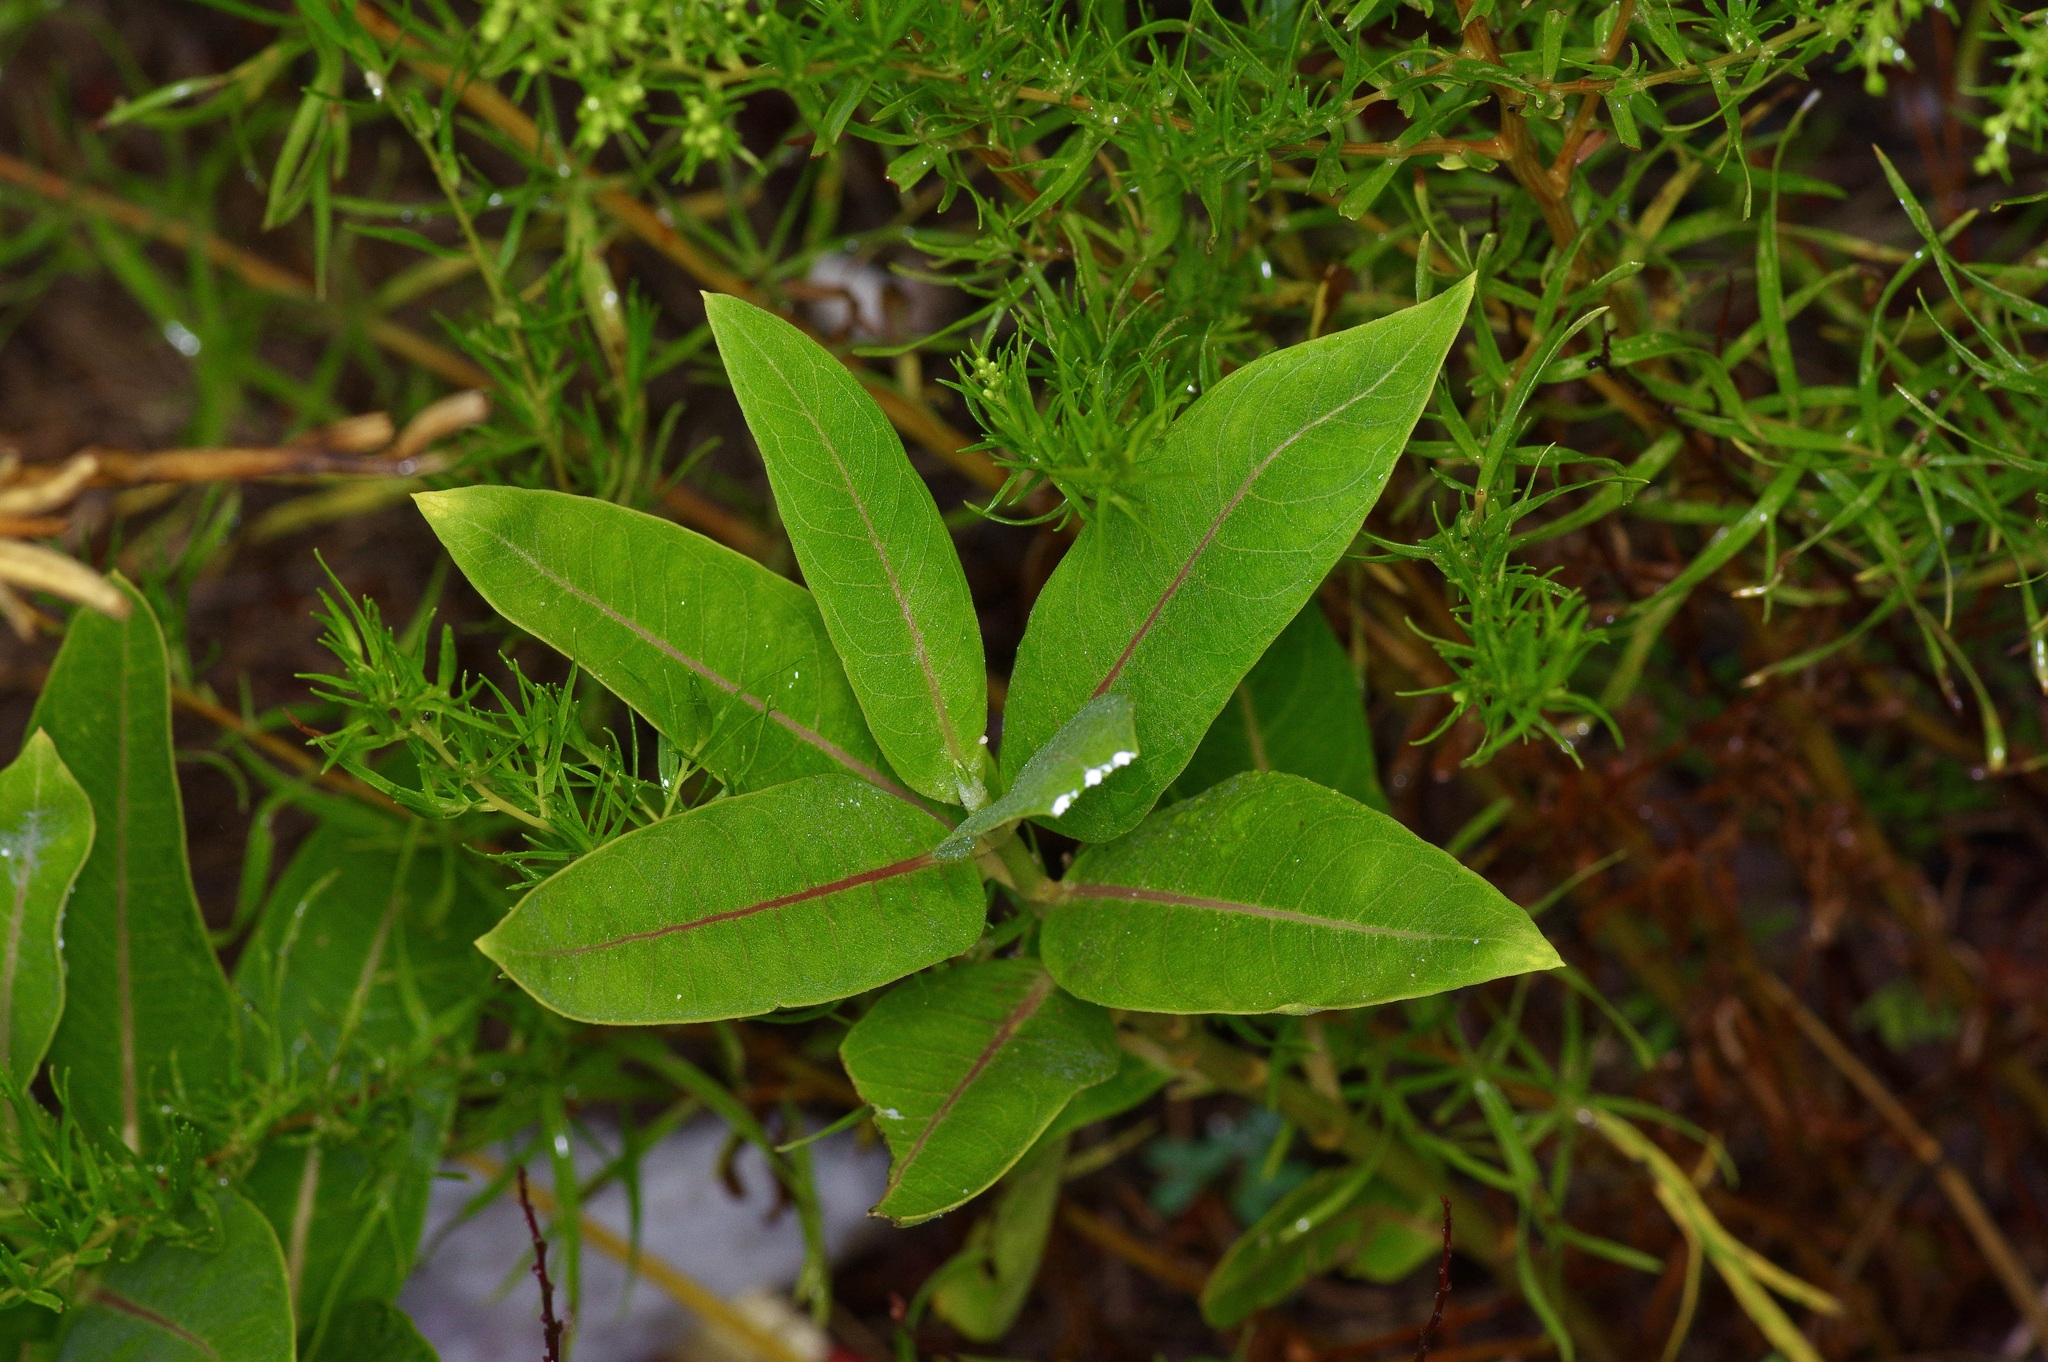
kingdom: Plantae
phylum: Tracheophyta
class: Magnoliopsida
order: Gentianales
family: Apocynaceae
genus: Asclepias
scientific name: Asclepias speciosa
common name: Showy milkweed
